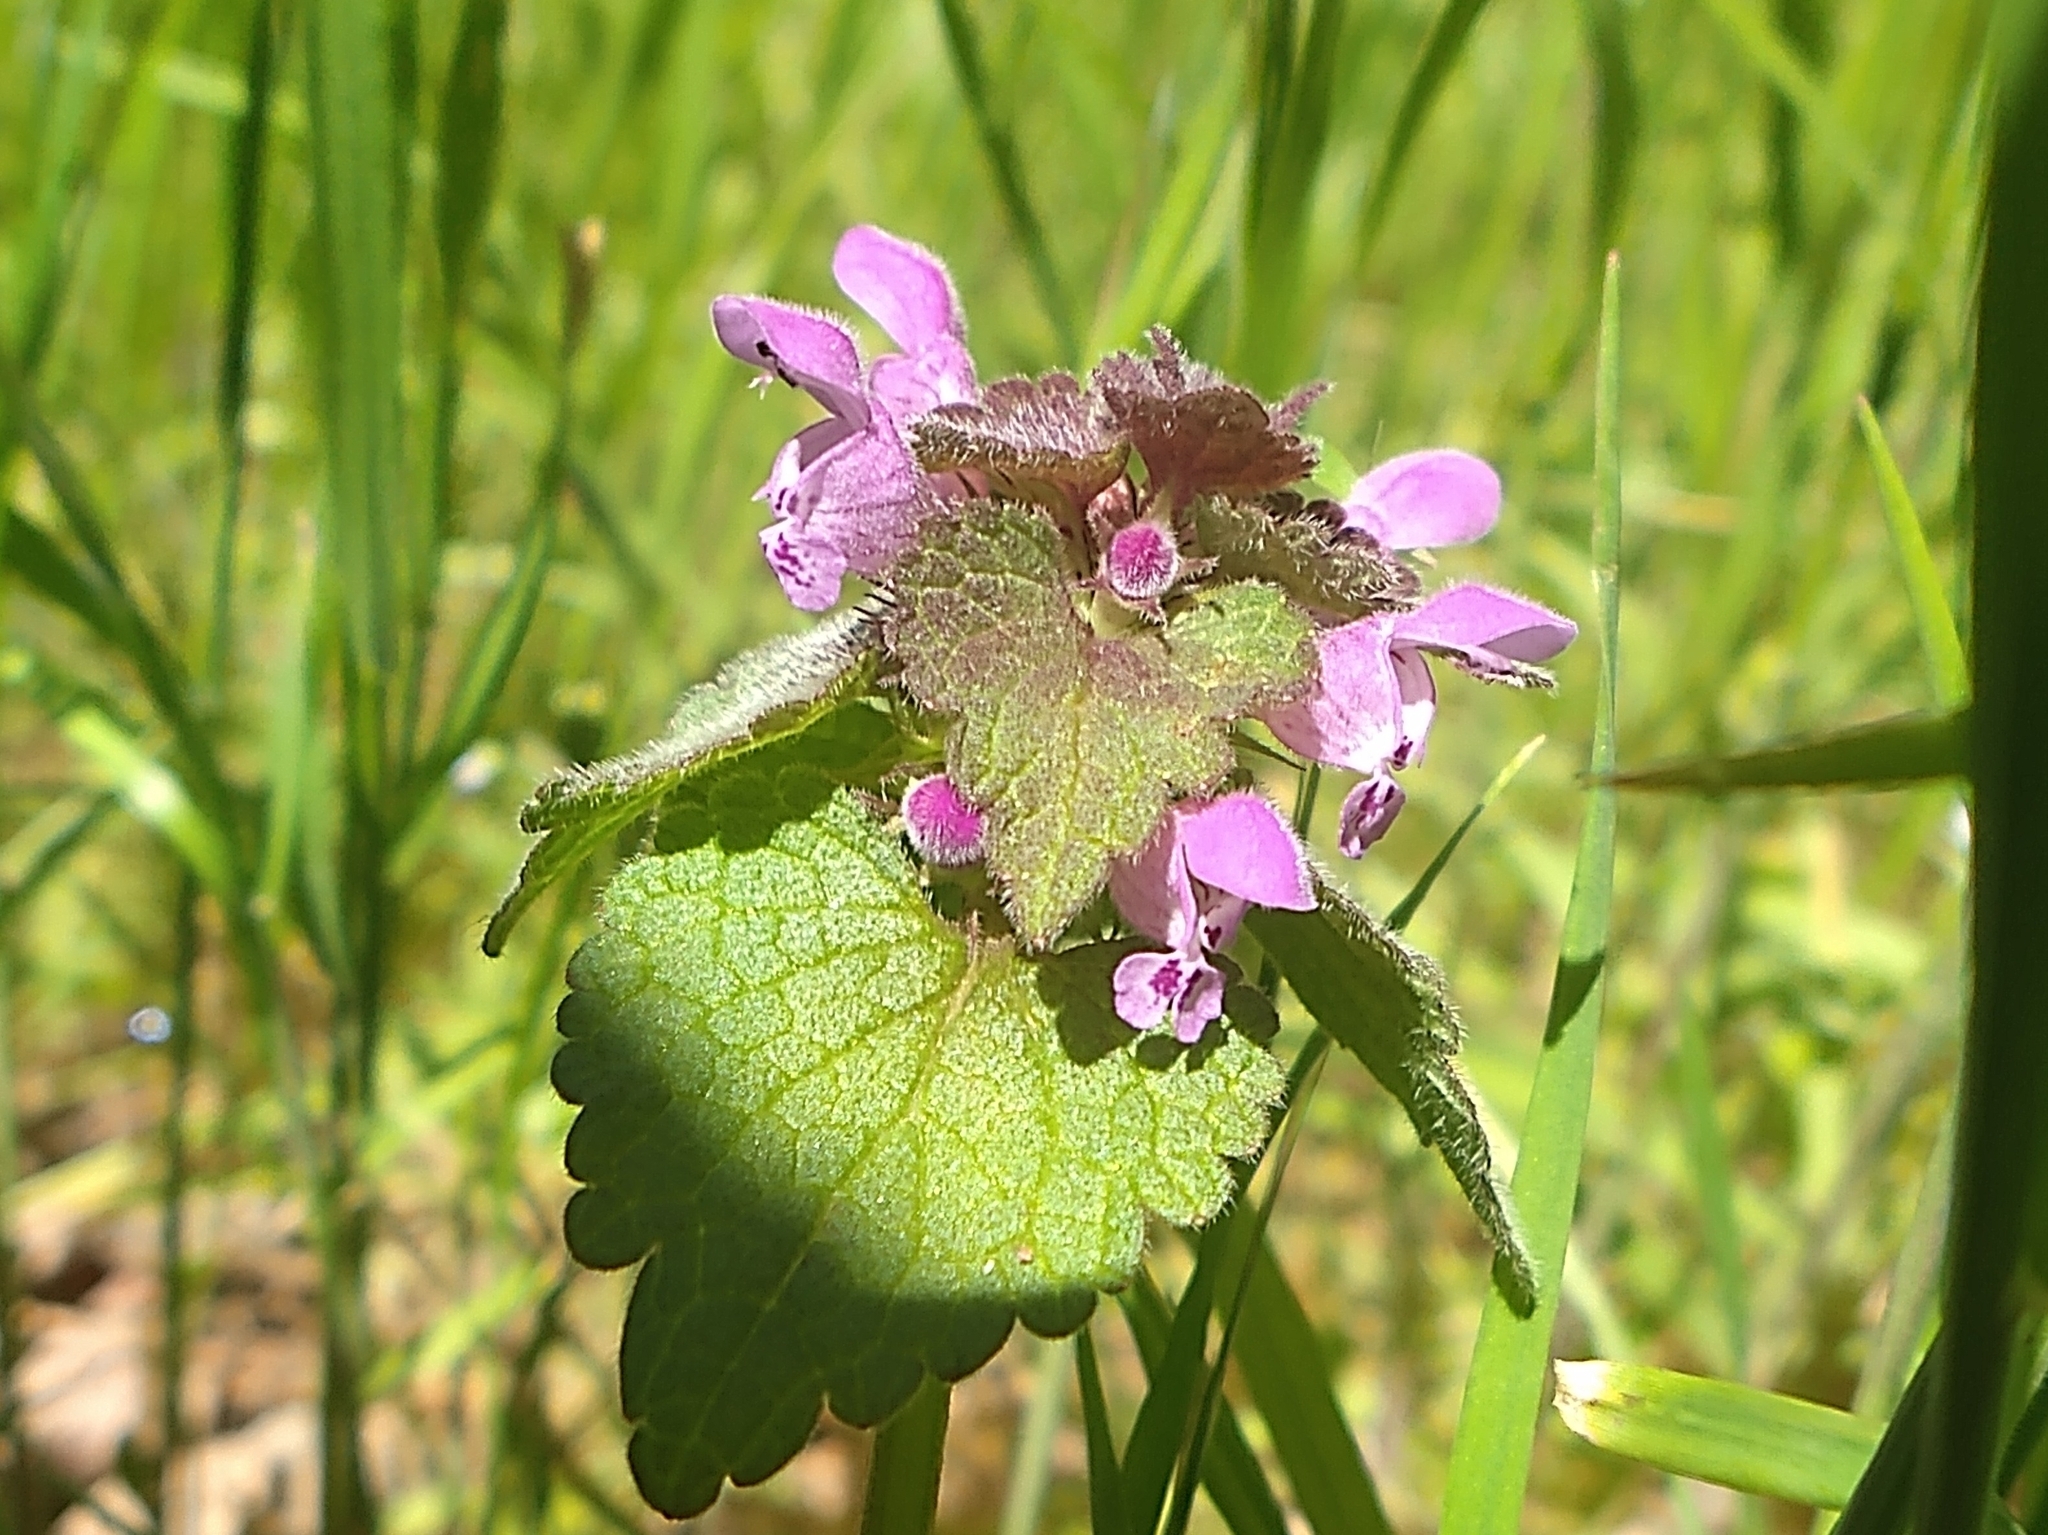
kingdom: Plantae
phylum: Tracheophyta
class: Magnoliopsida
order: Lamiales
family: Lamiaceae
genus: Lamium
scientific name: Lamium purpureum
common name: Red dead-nettle
